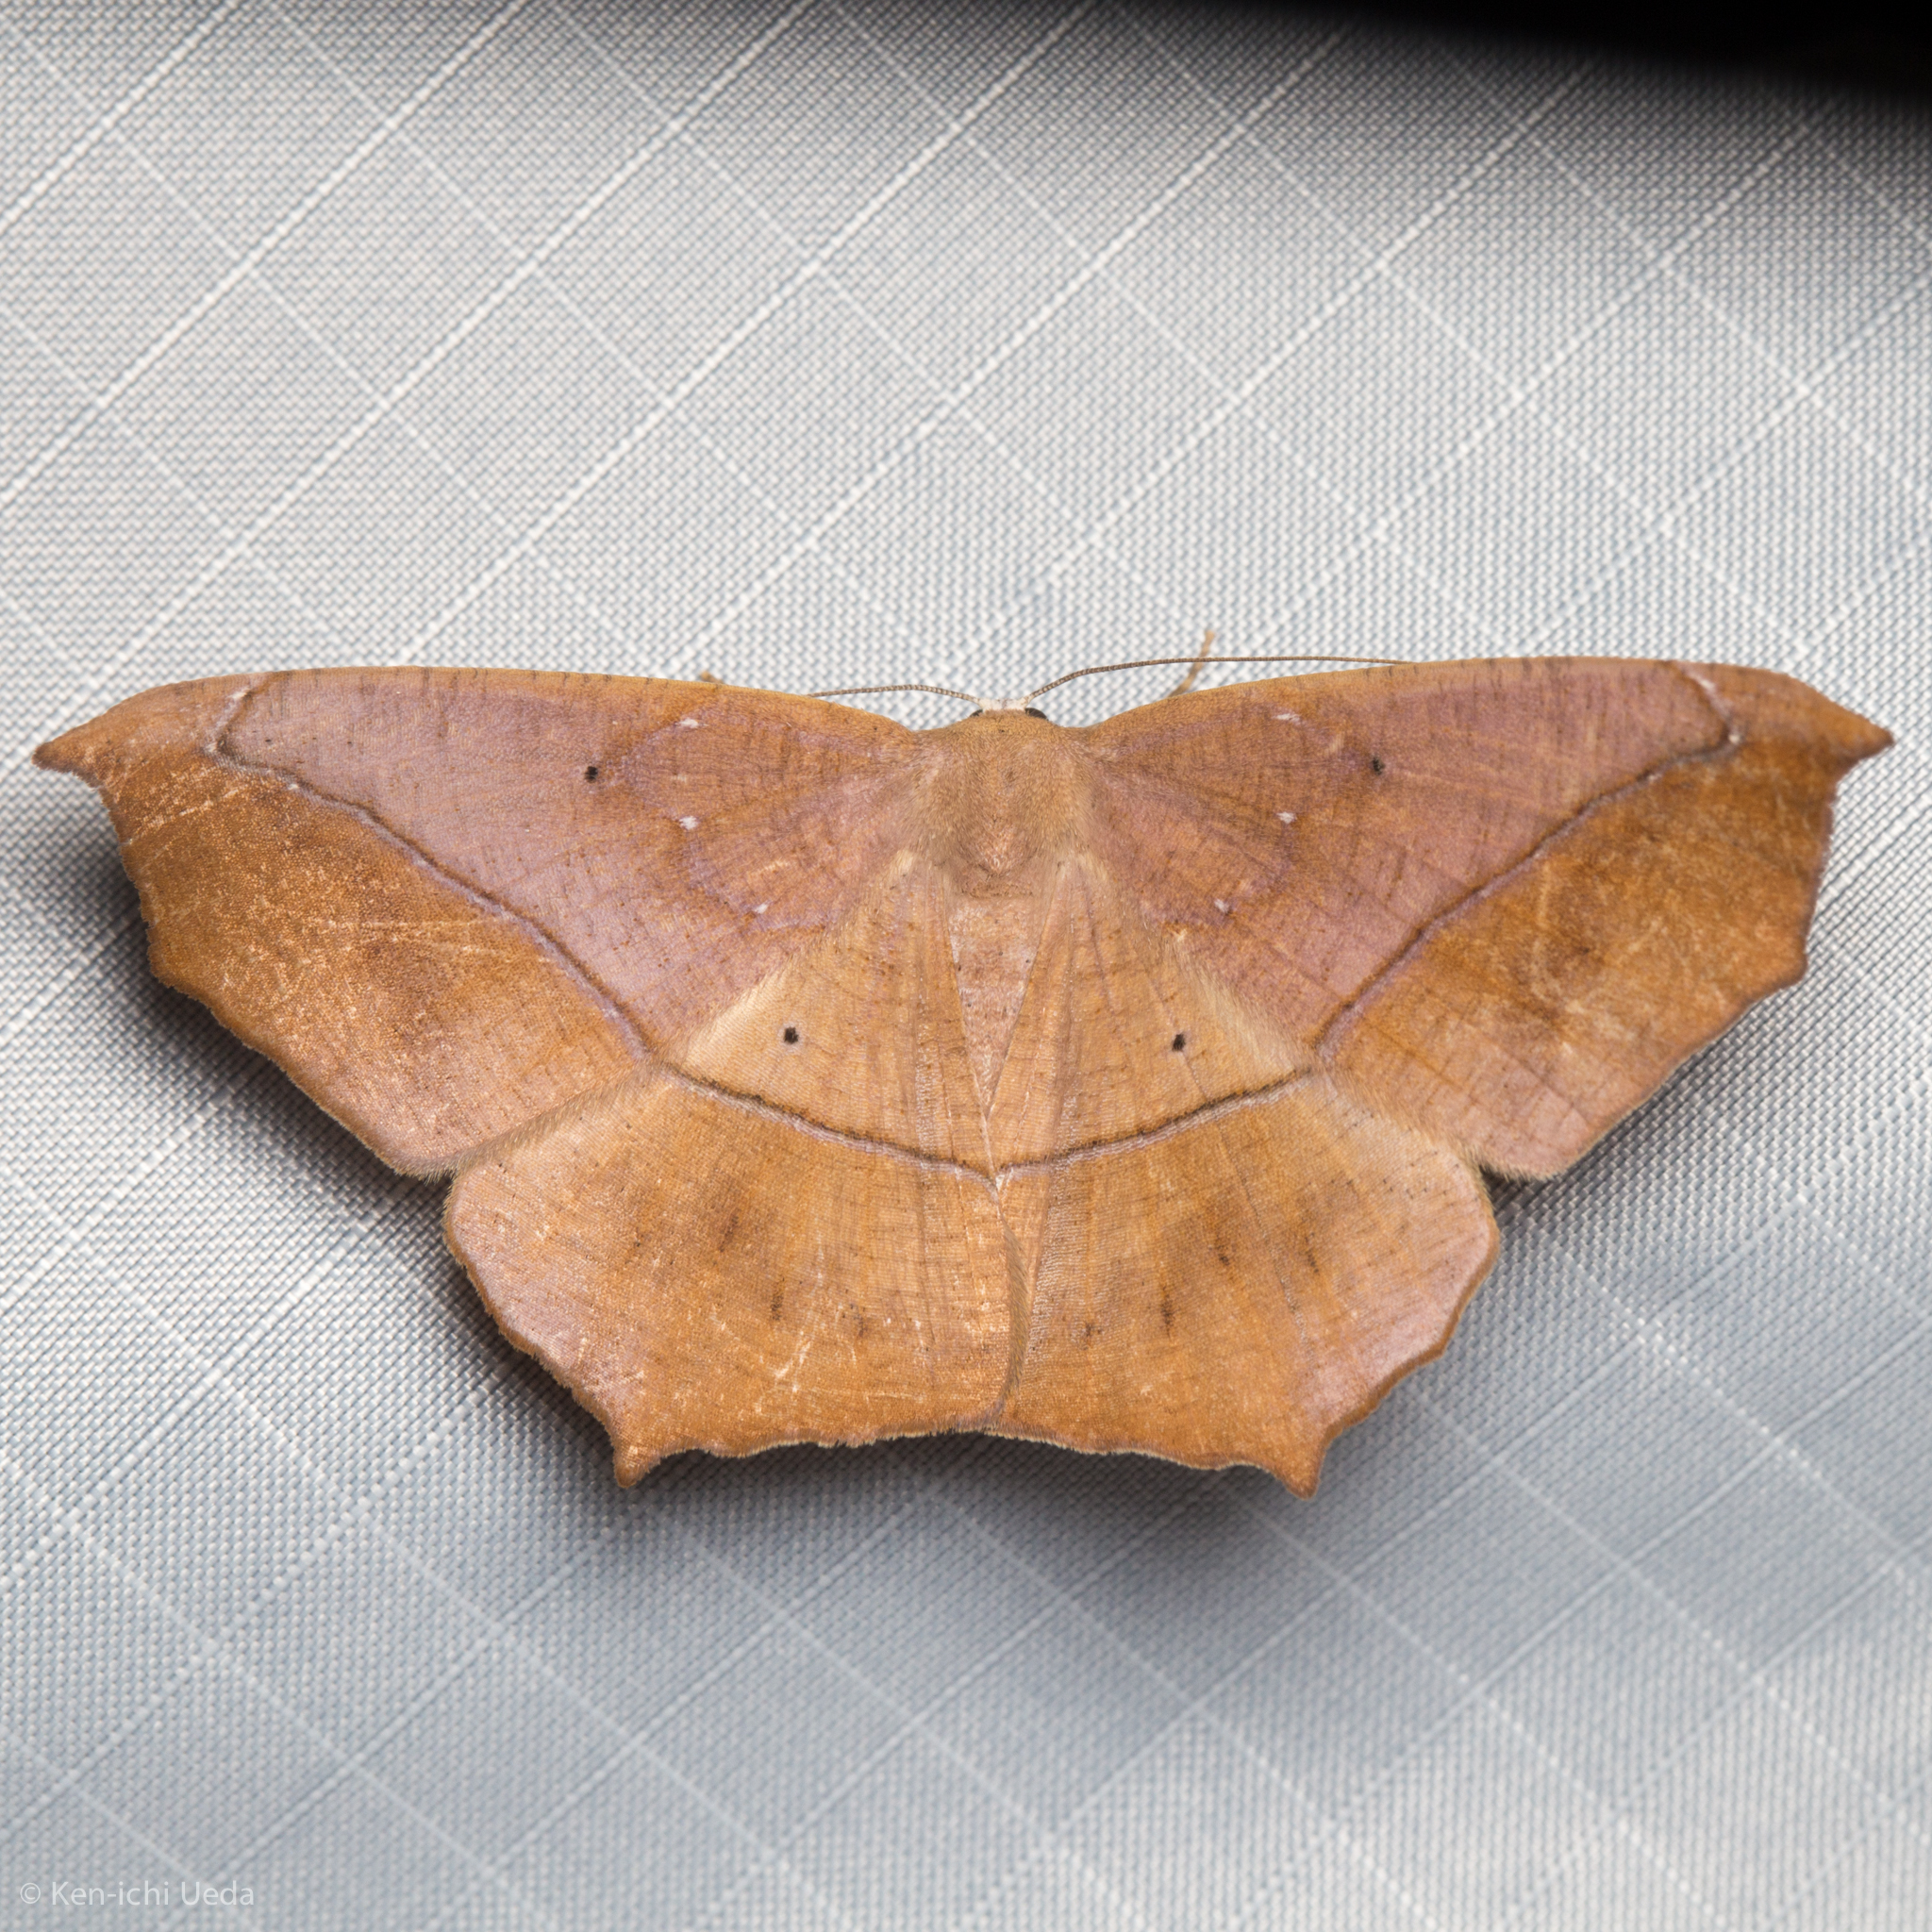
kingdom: Animalia
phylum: Arthropoda
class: Insecta
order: Lepidoptera
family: Geometridae
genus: Prochoerodes
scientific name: Prochoerodes lineola
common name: Large maple spanworm
